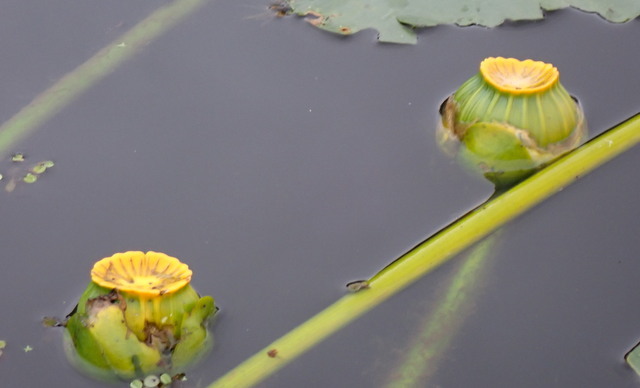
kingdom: Plantae
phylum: Tracheophyta
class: Magnoliopsida
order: Nymphaeales
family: Nymphaeaceae
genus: Nuphar
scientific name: Nuphar advena
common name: Spatter-dock
